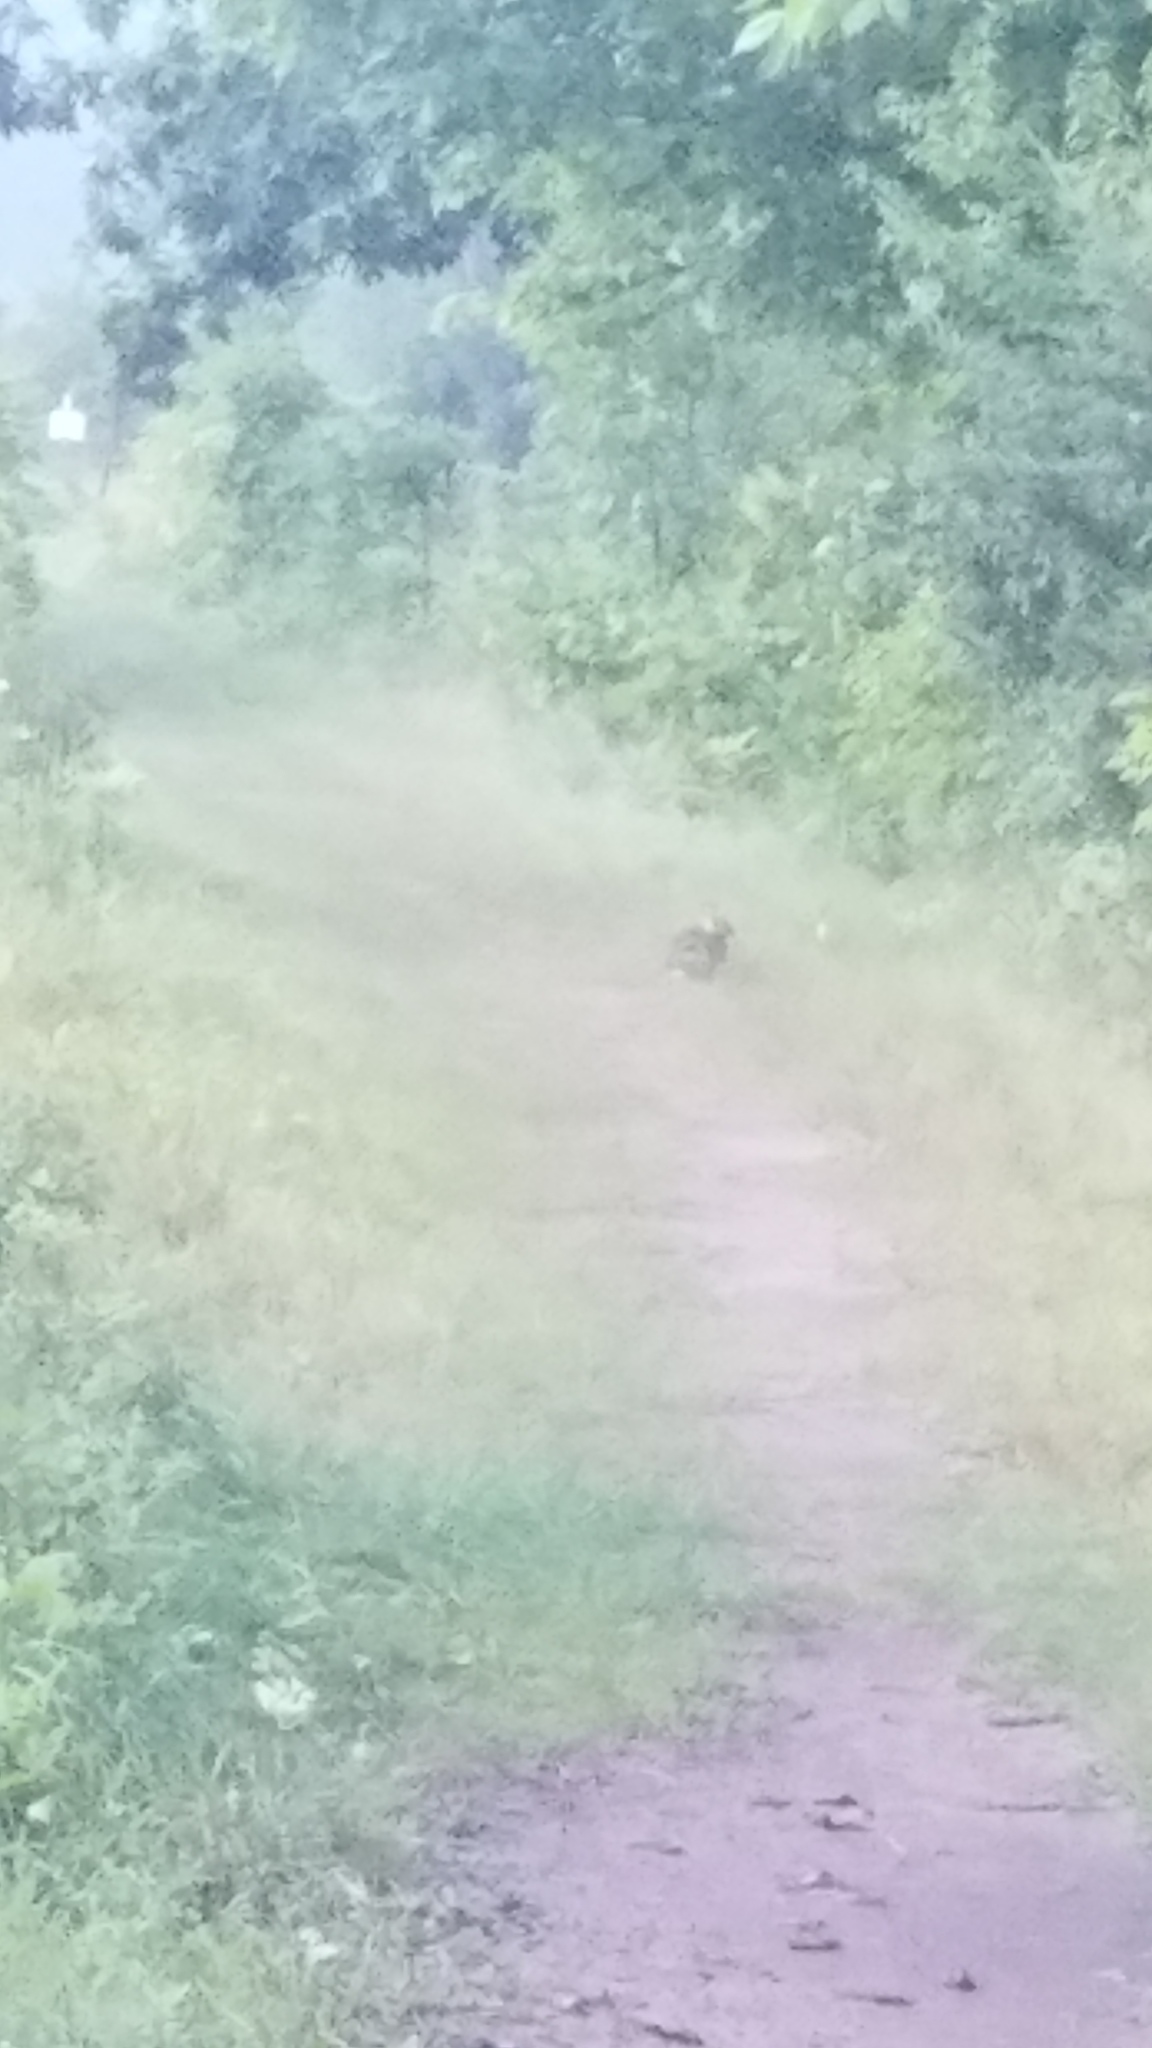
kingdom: Animalia
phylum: Chordata
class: Mammalia
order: Lagomorpha
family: Leporidae
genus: Sylvilagus
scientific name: Sylvilagus floridanus
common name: Eastern cottontail
